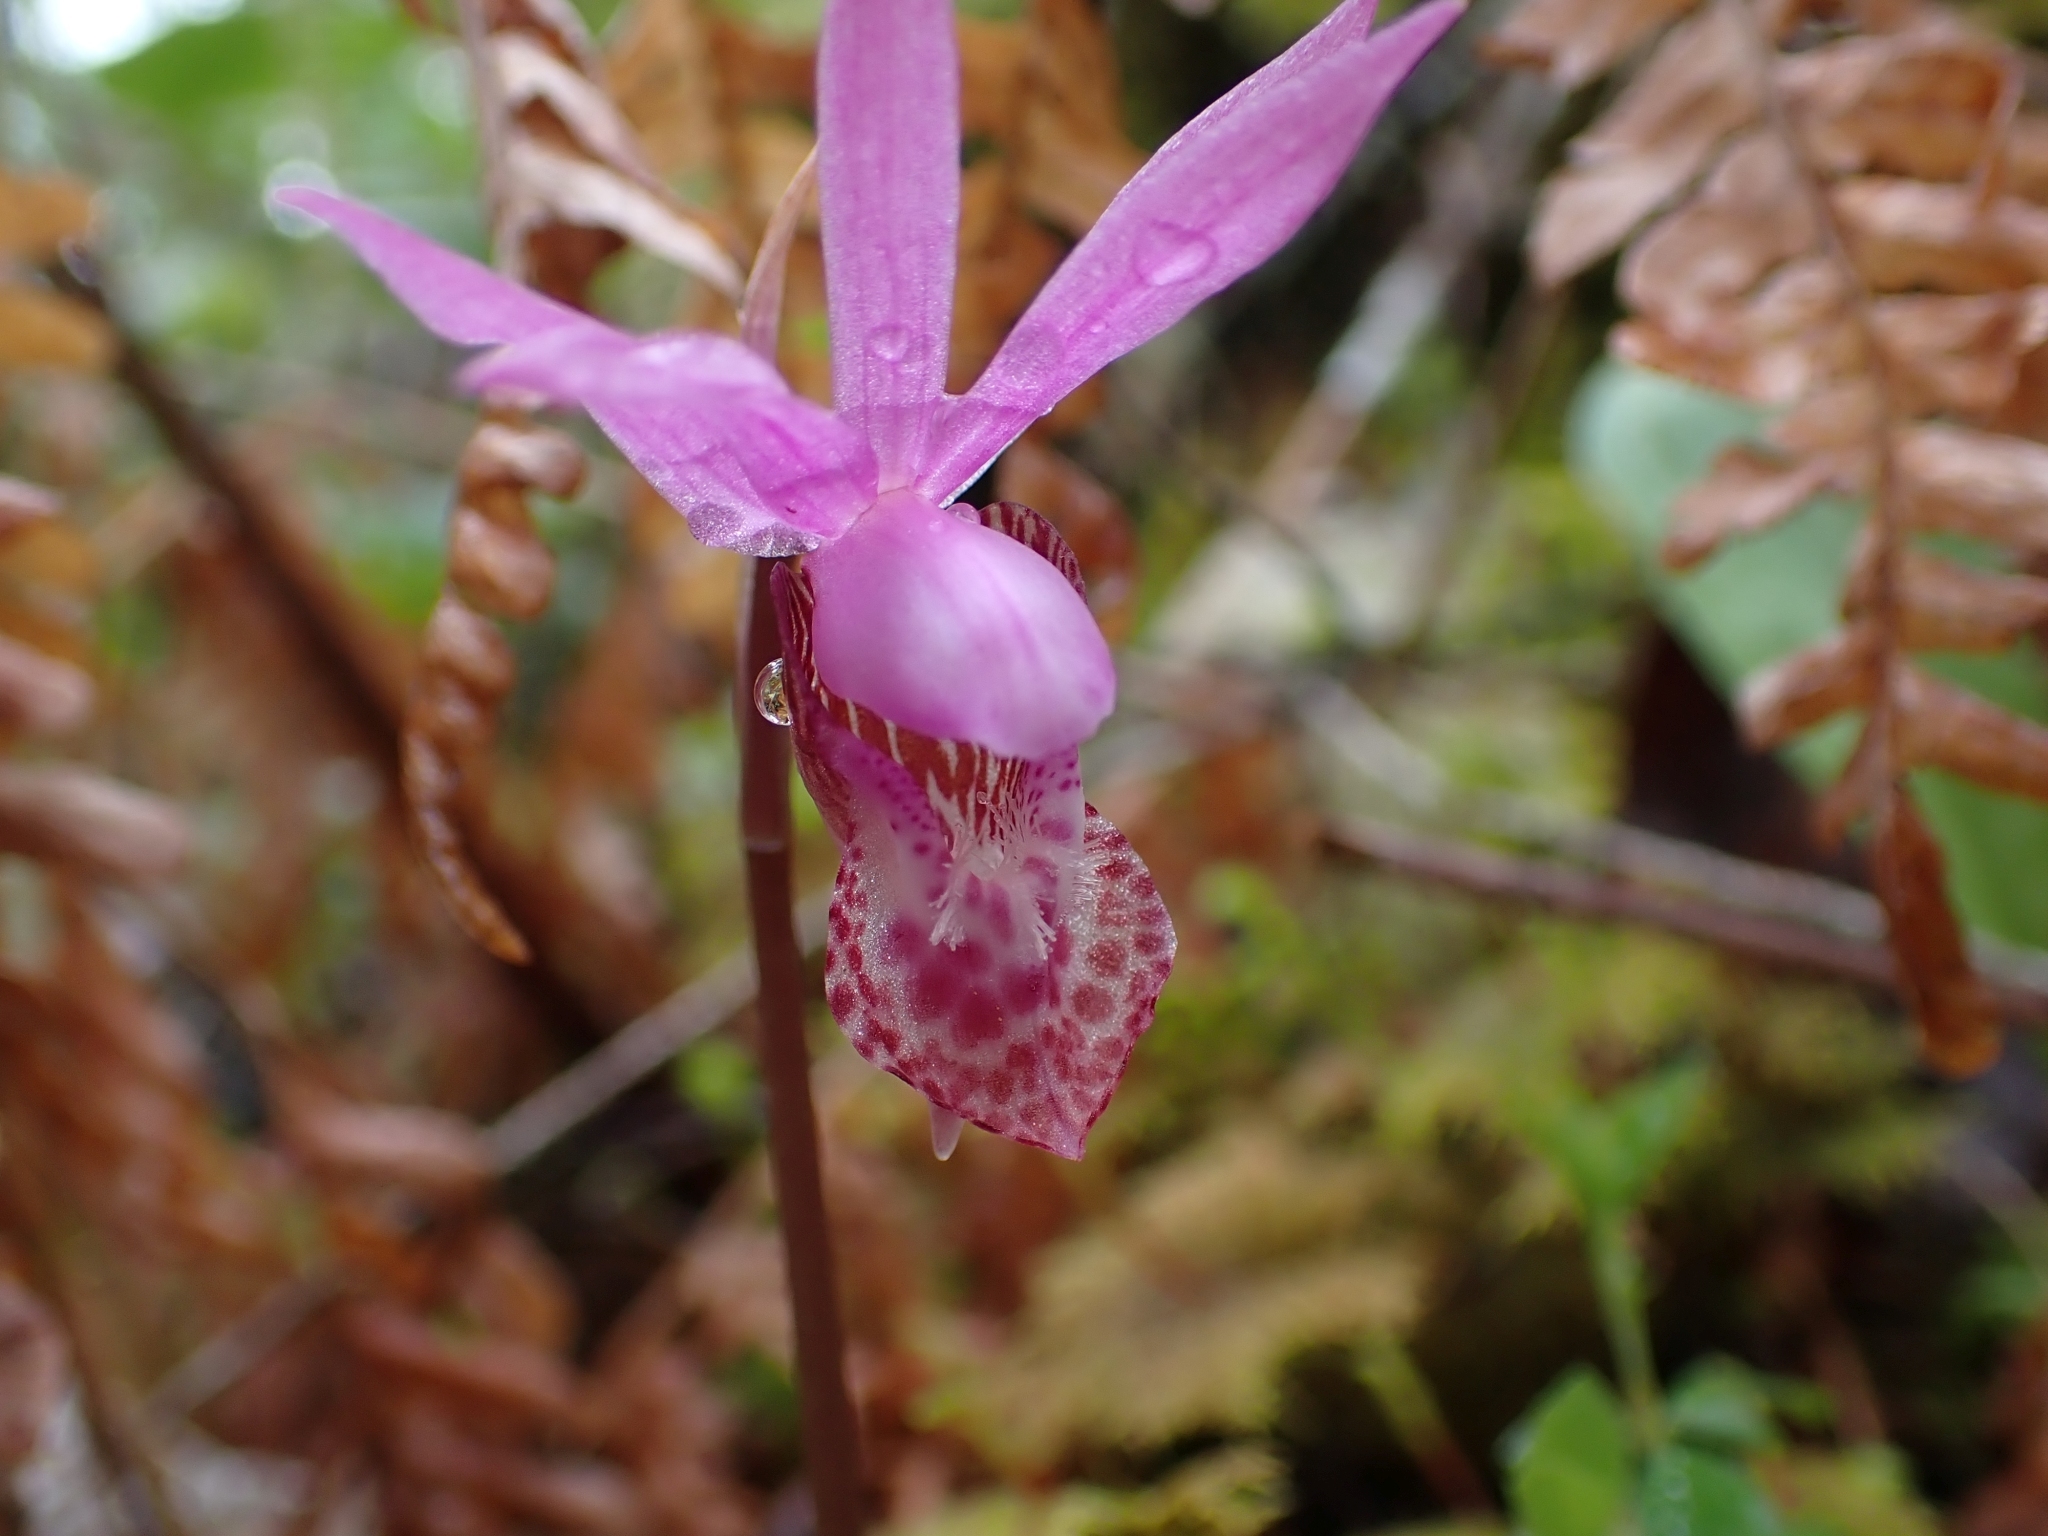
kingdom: Plantae
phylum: Tracheophyta
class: Liliopsida
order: Asparagales
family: Orchidaceae
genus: Calypso
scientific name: Calypso bulbosa
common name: Calypso
